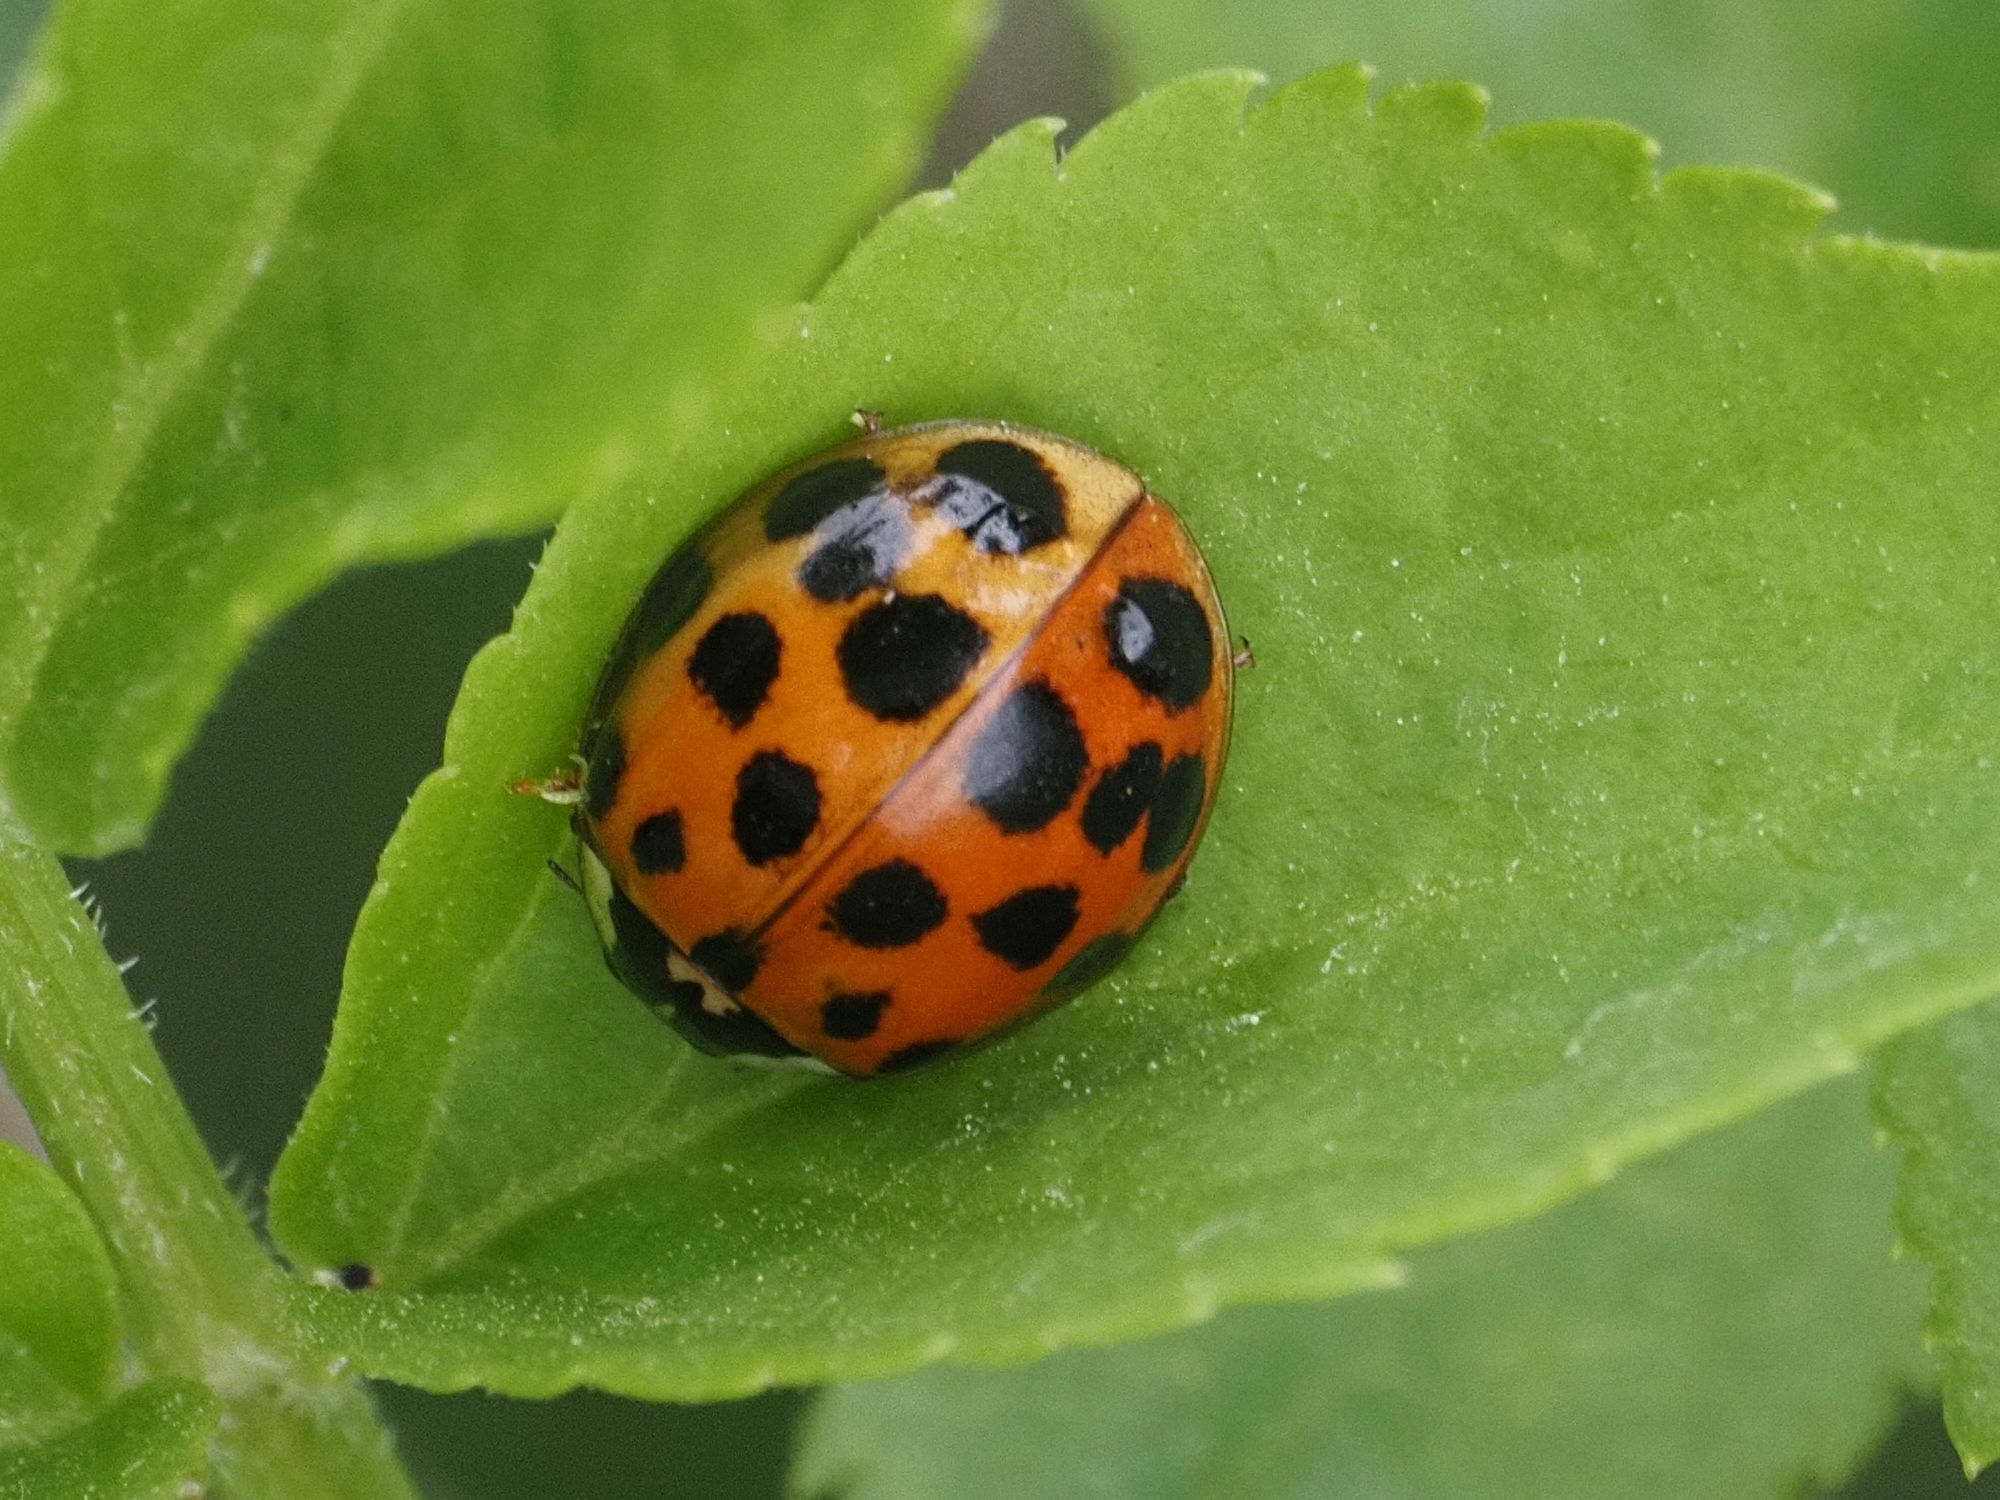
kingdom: Animalia
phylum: Arthropoda
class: Insecta
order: Coleoptera
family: Coccinellidae
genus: Harmonia
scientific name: Harmonia axyridis
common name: Harlequin ladybird
